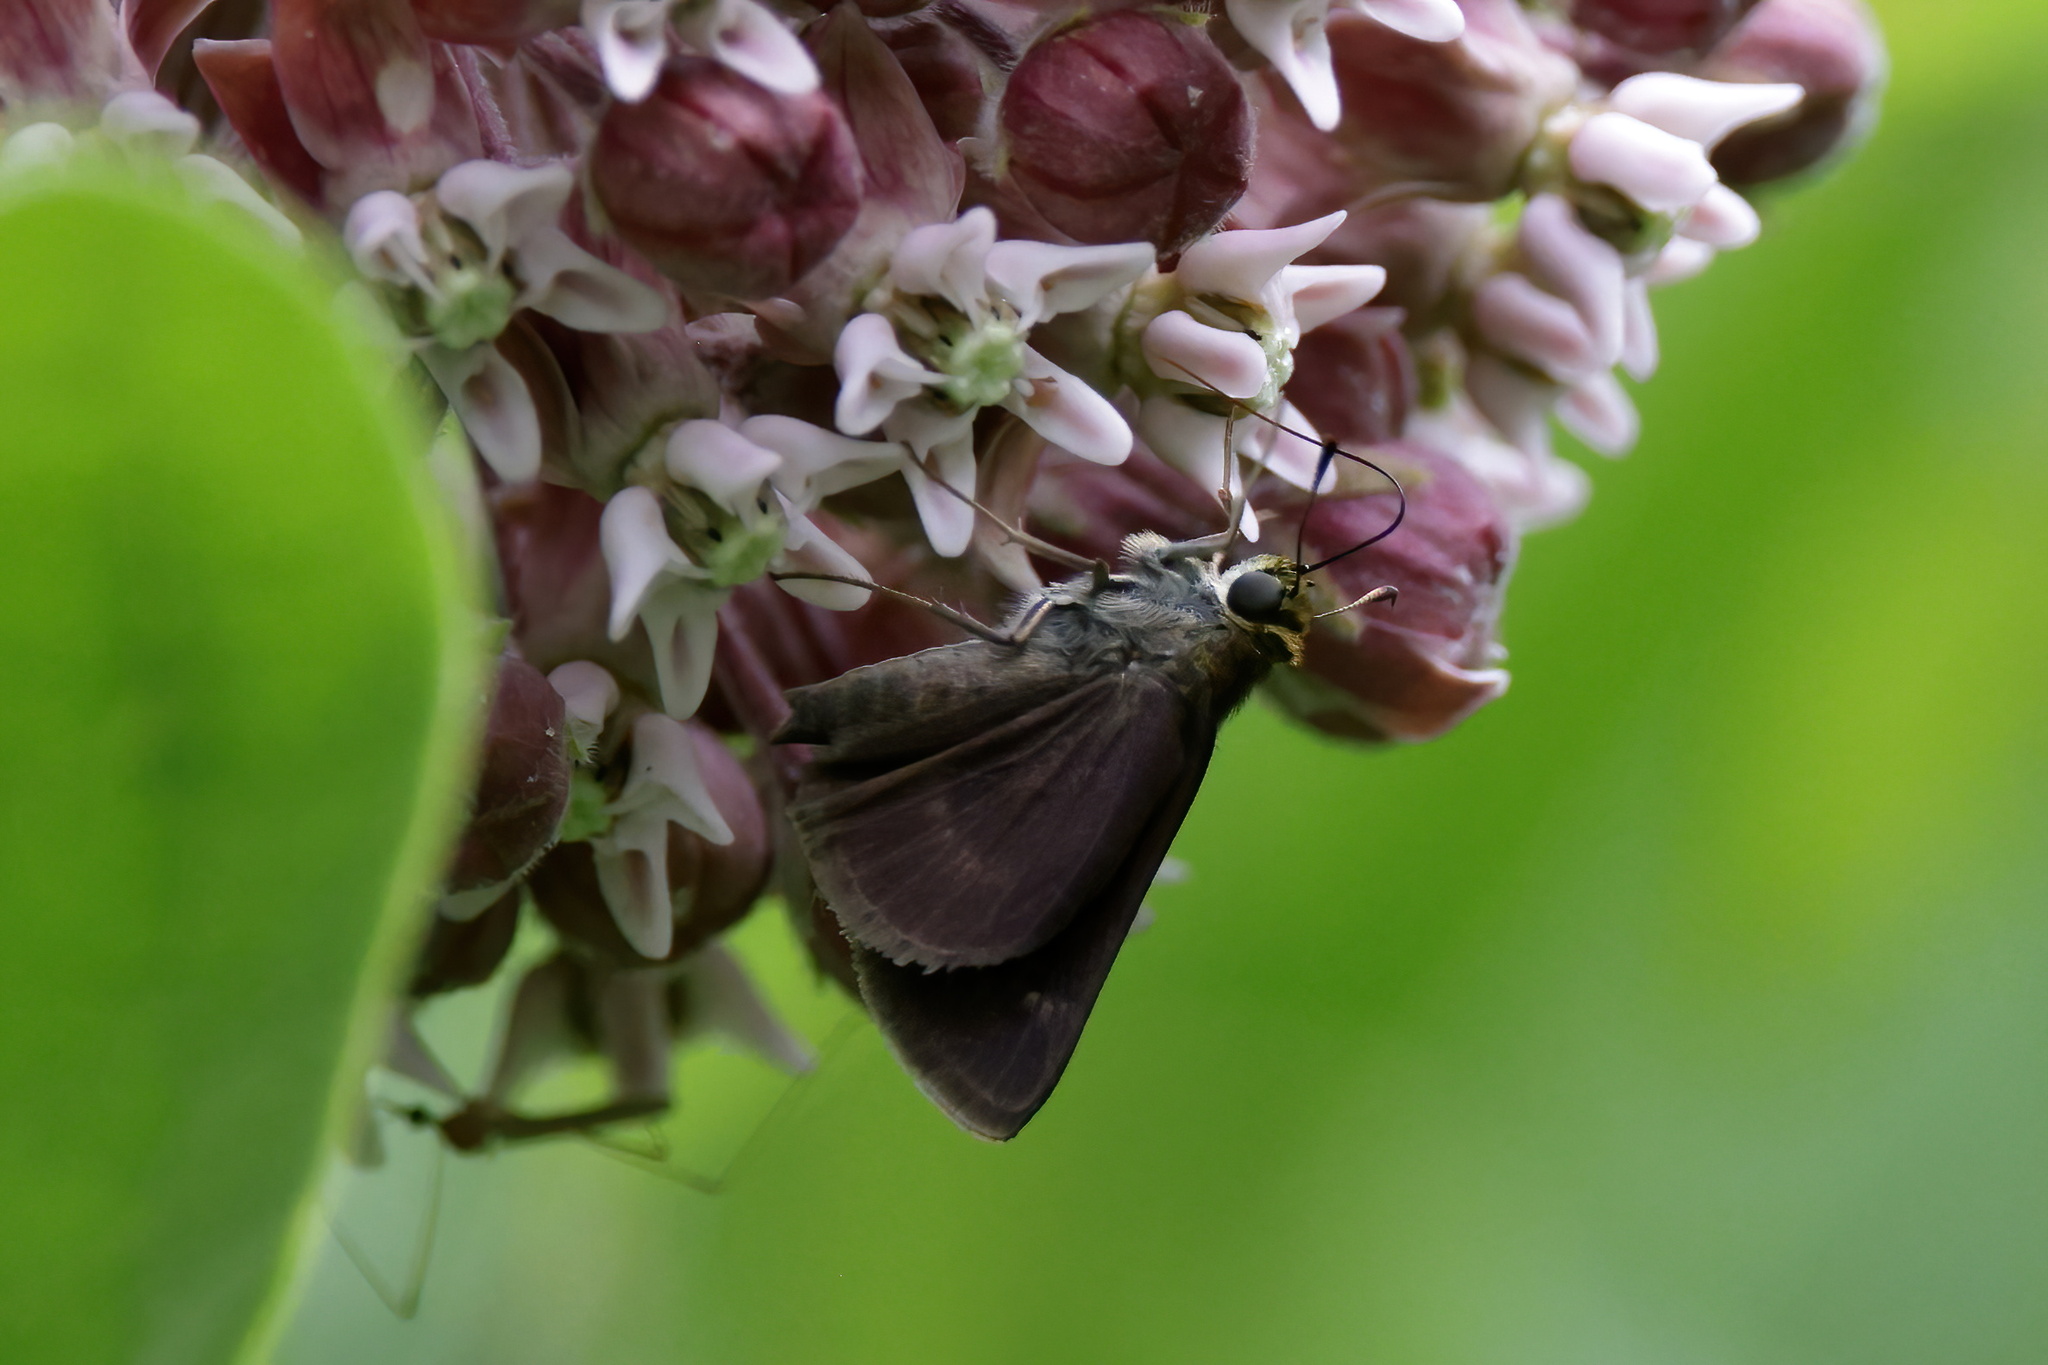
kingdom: Animalia
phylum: Arthropoda
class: Insecta
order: Lepidoptera
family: Hesperiidae
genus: Euphyes
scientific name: Euphyes vestris
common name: Dun skipper
